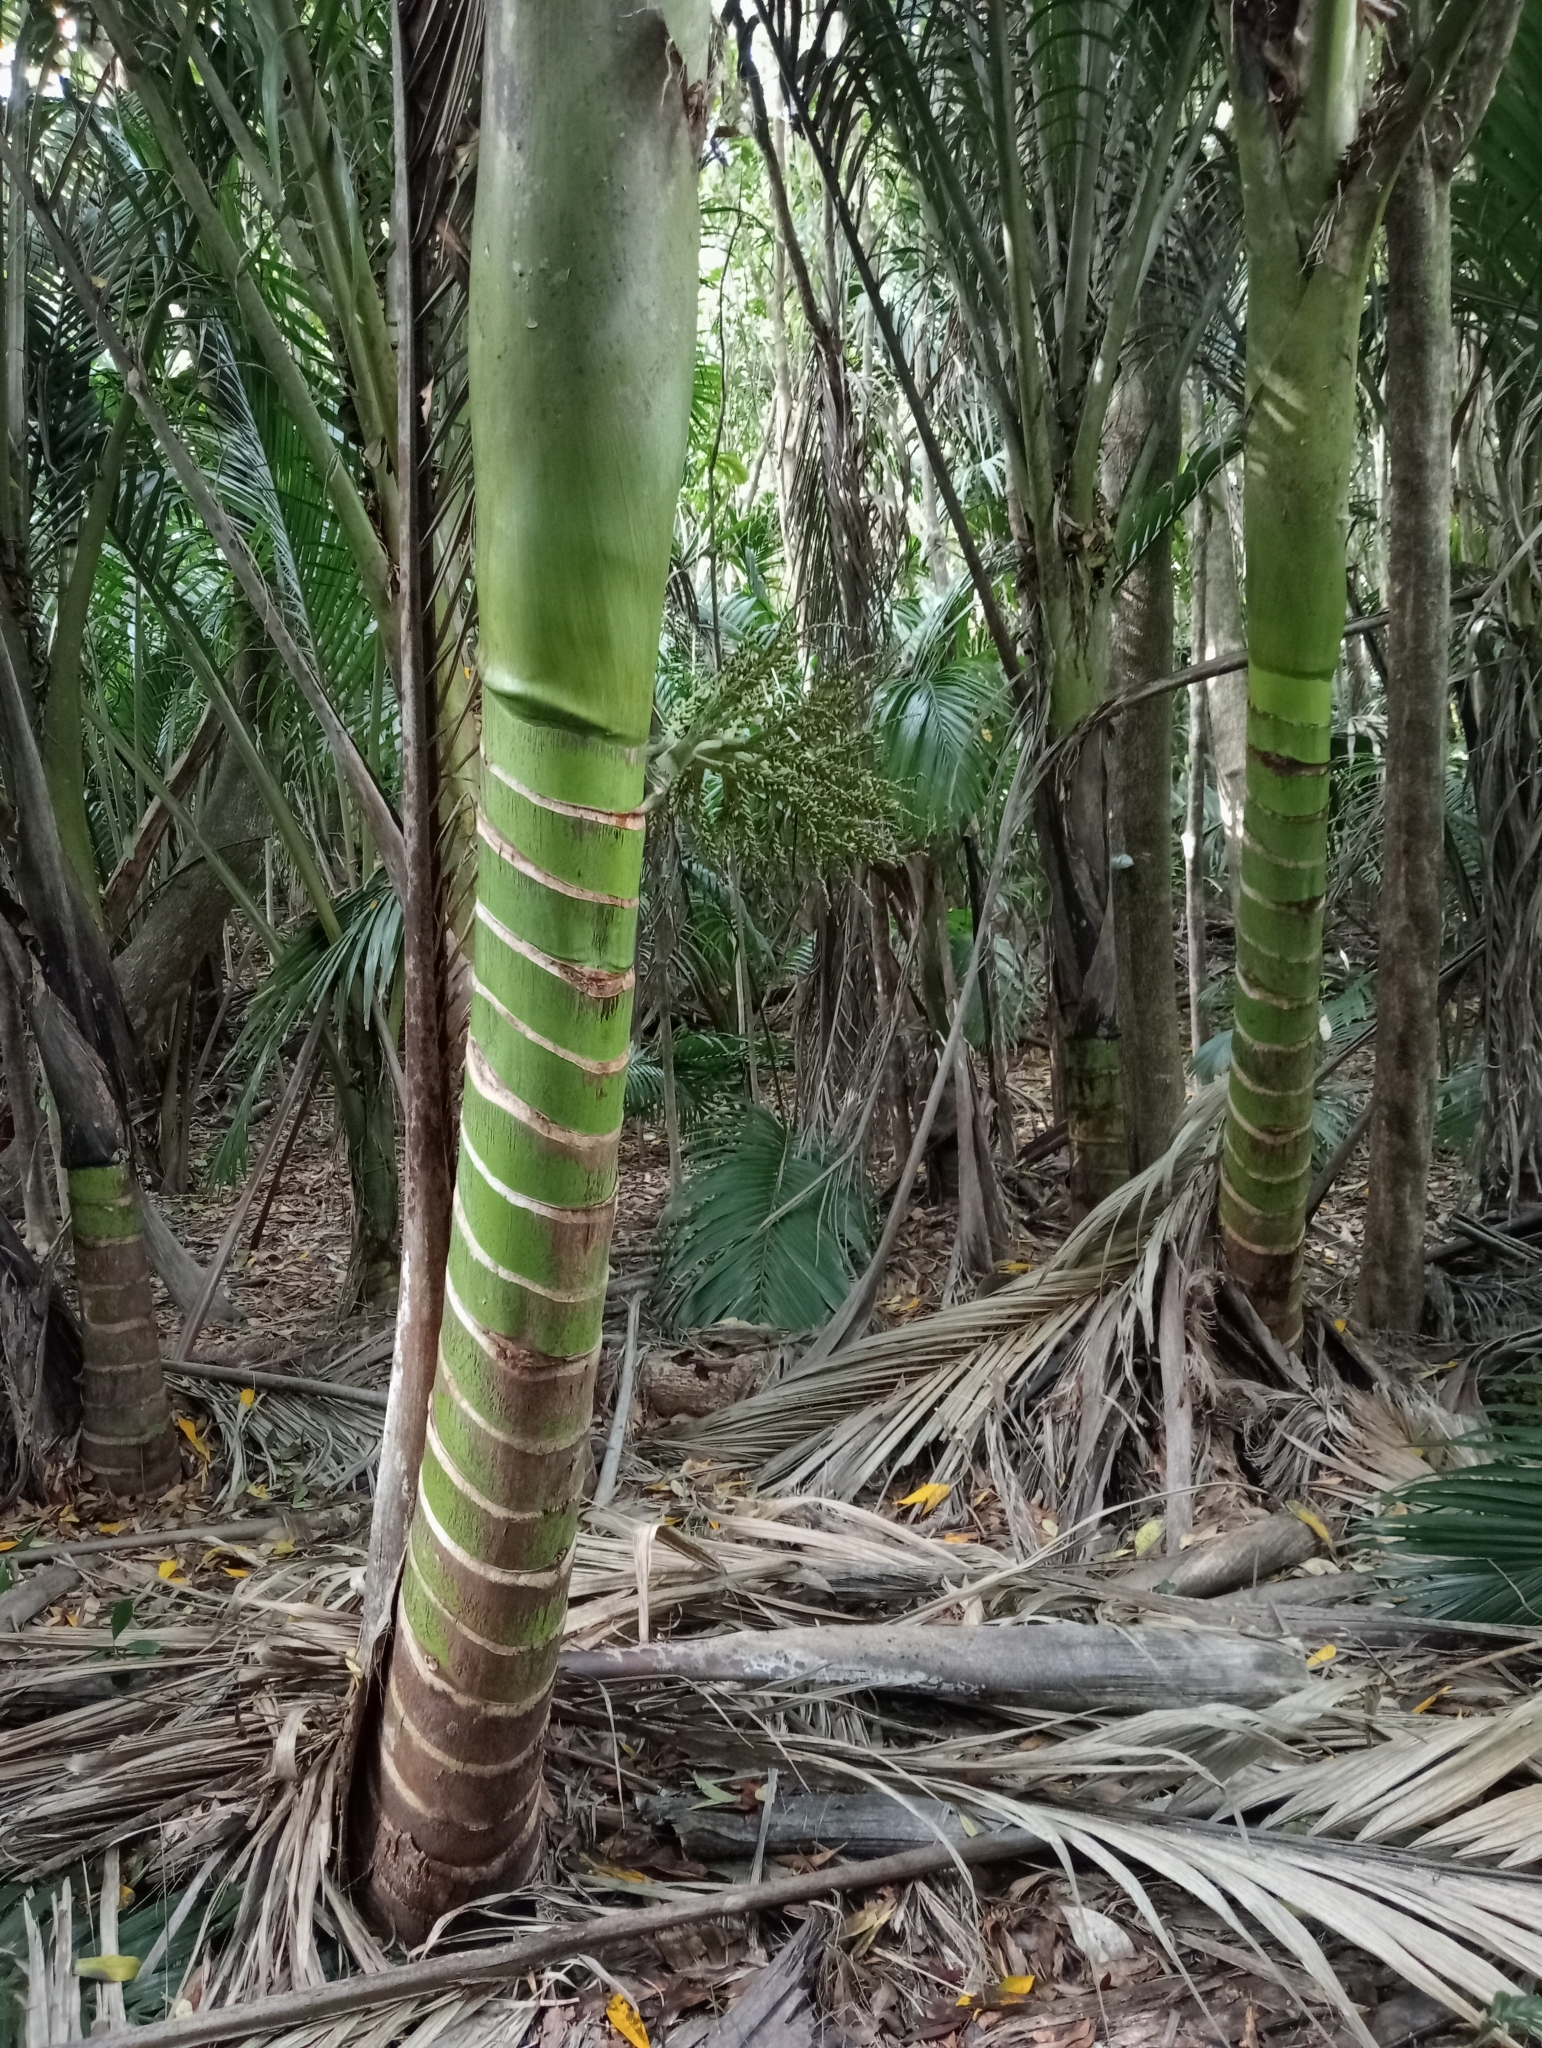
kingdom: Plantae
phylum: Tracheophyta
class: Liliopsida
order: Arecales
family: Arecaceae
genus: Rhopalostylis
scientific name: Rhopalostylis sapida
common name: Feather-duster palm
